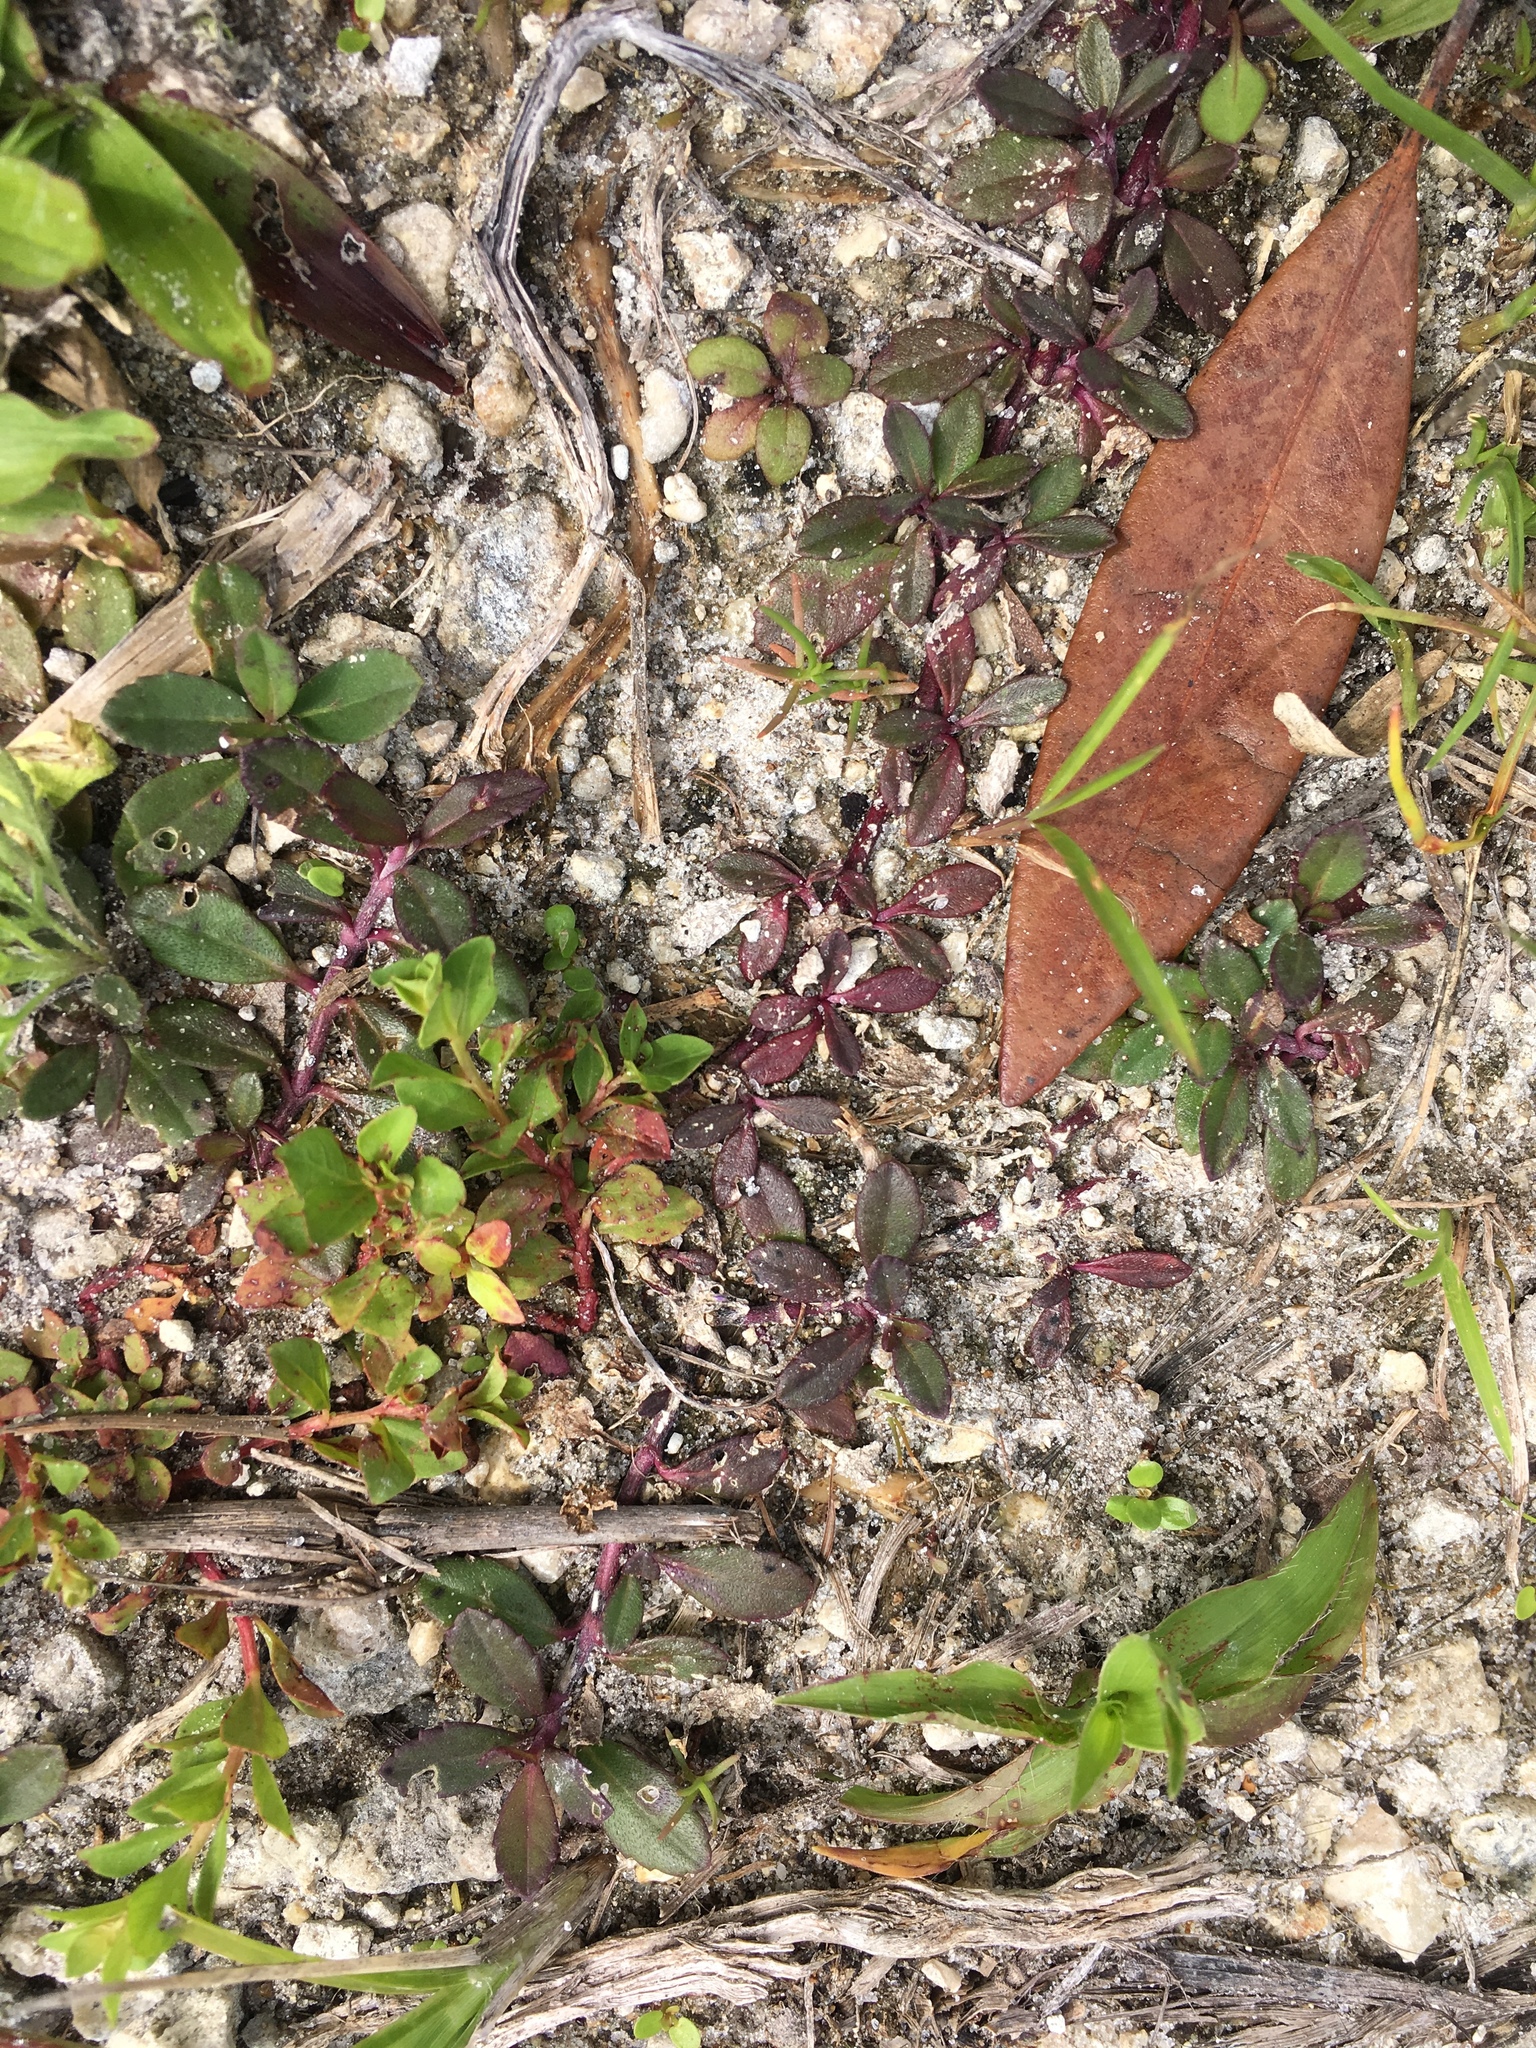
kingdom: Plantae
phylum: Tracheophyta
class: Magnoliopsida
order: Lamiales
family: Verbenaceae
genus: Phyla
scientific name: Phyla nodiflora
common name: Frogfruit
